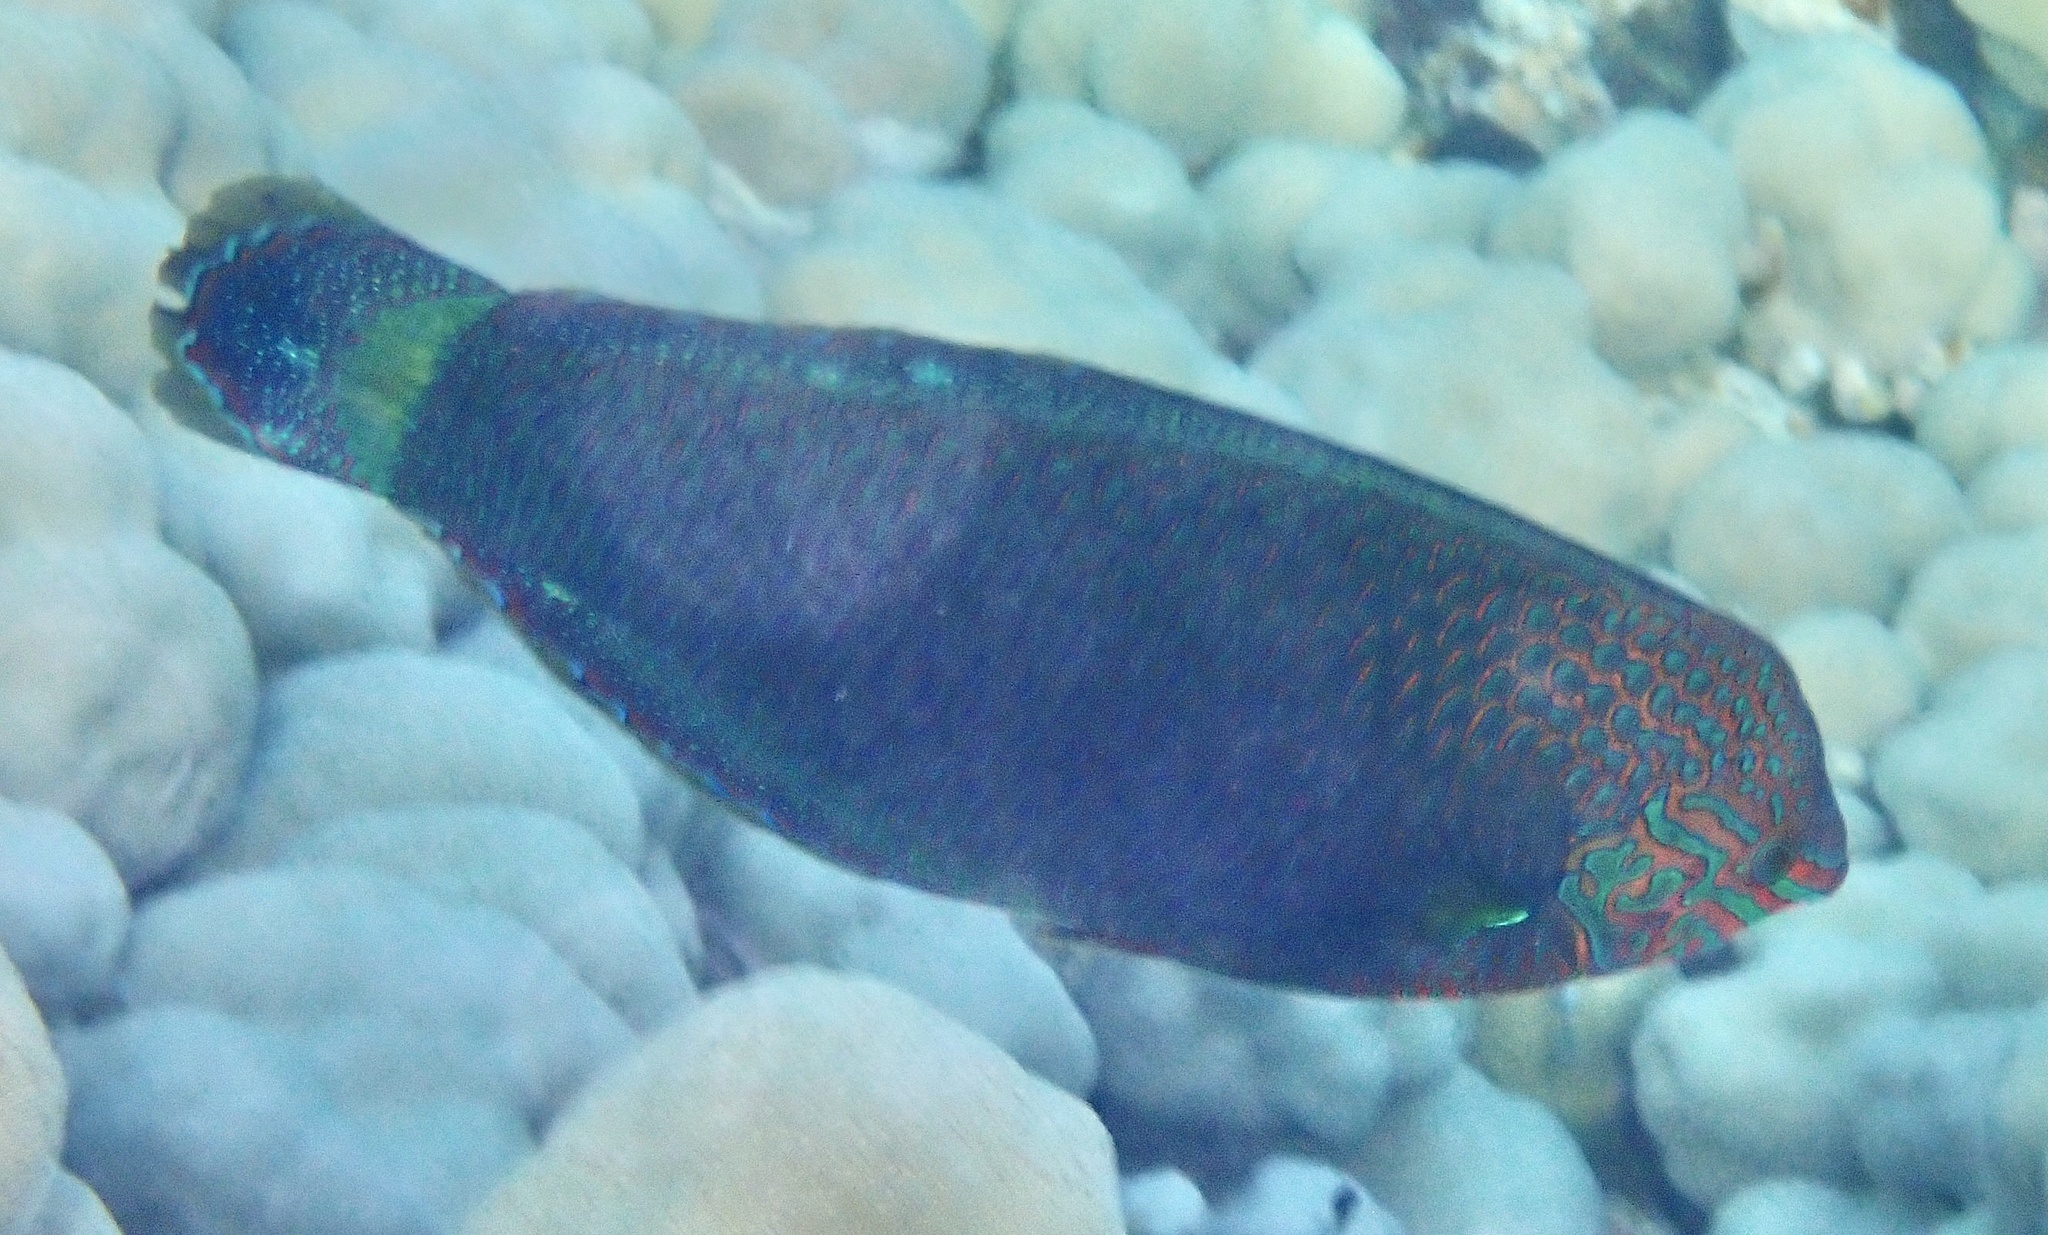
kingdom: Animalia
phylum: Chordata
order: Perciformes
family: Labridae
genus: Halichoeres
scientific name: Halichoeres marginatus
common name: Dusky wrasse
